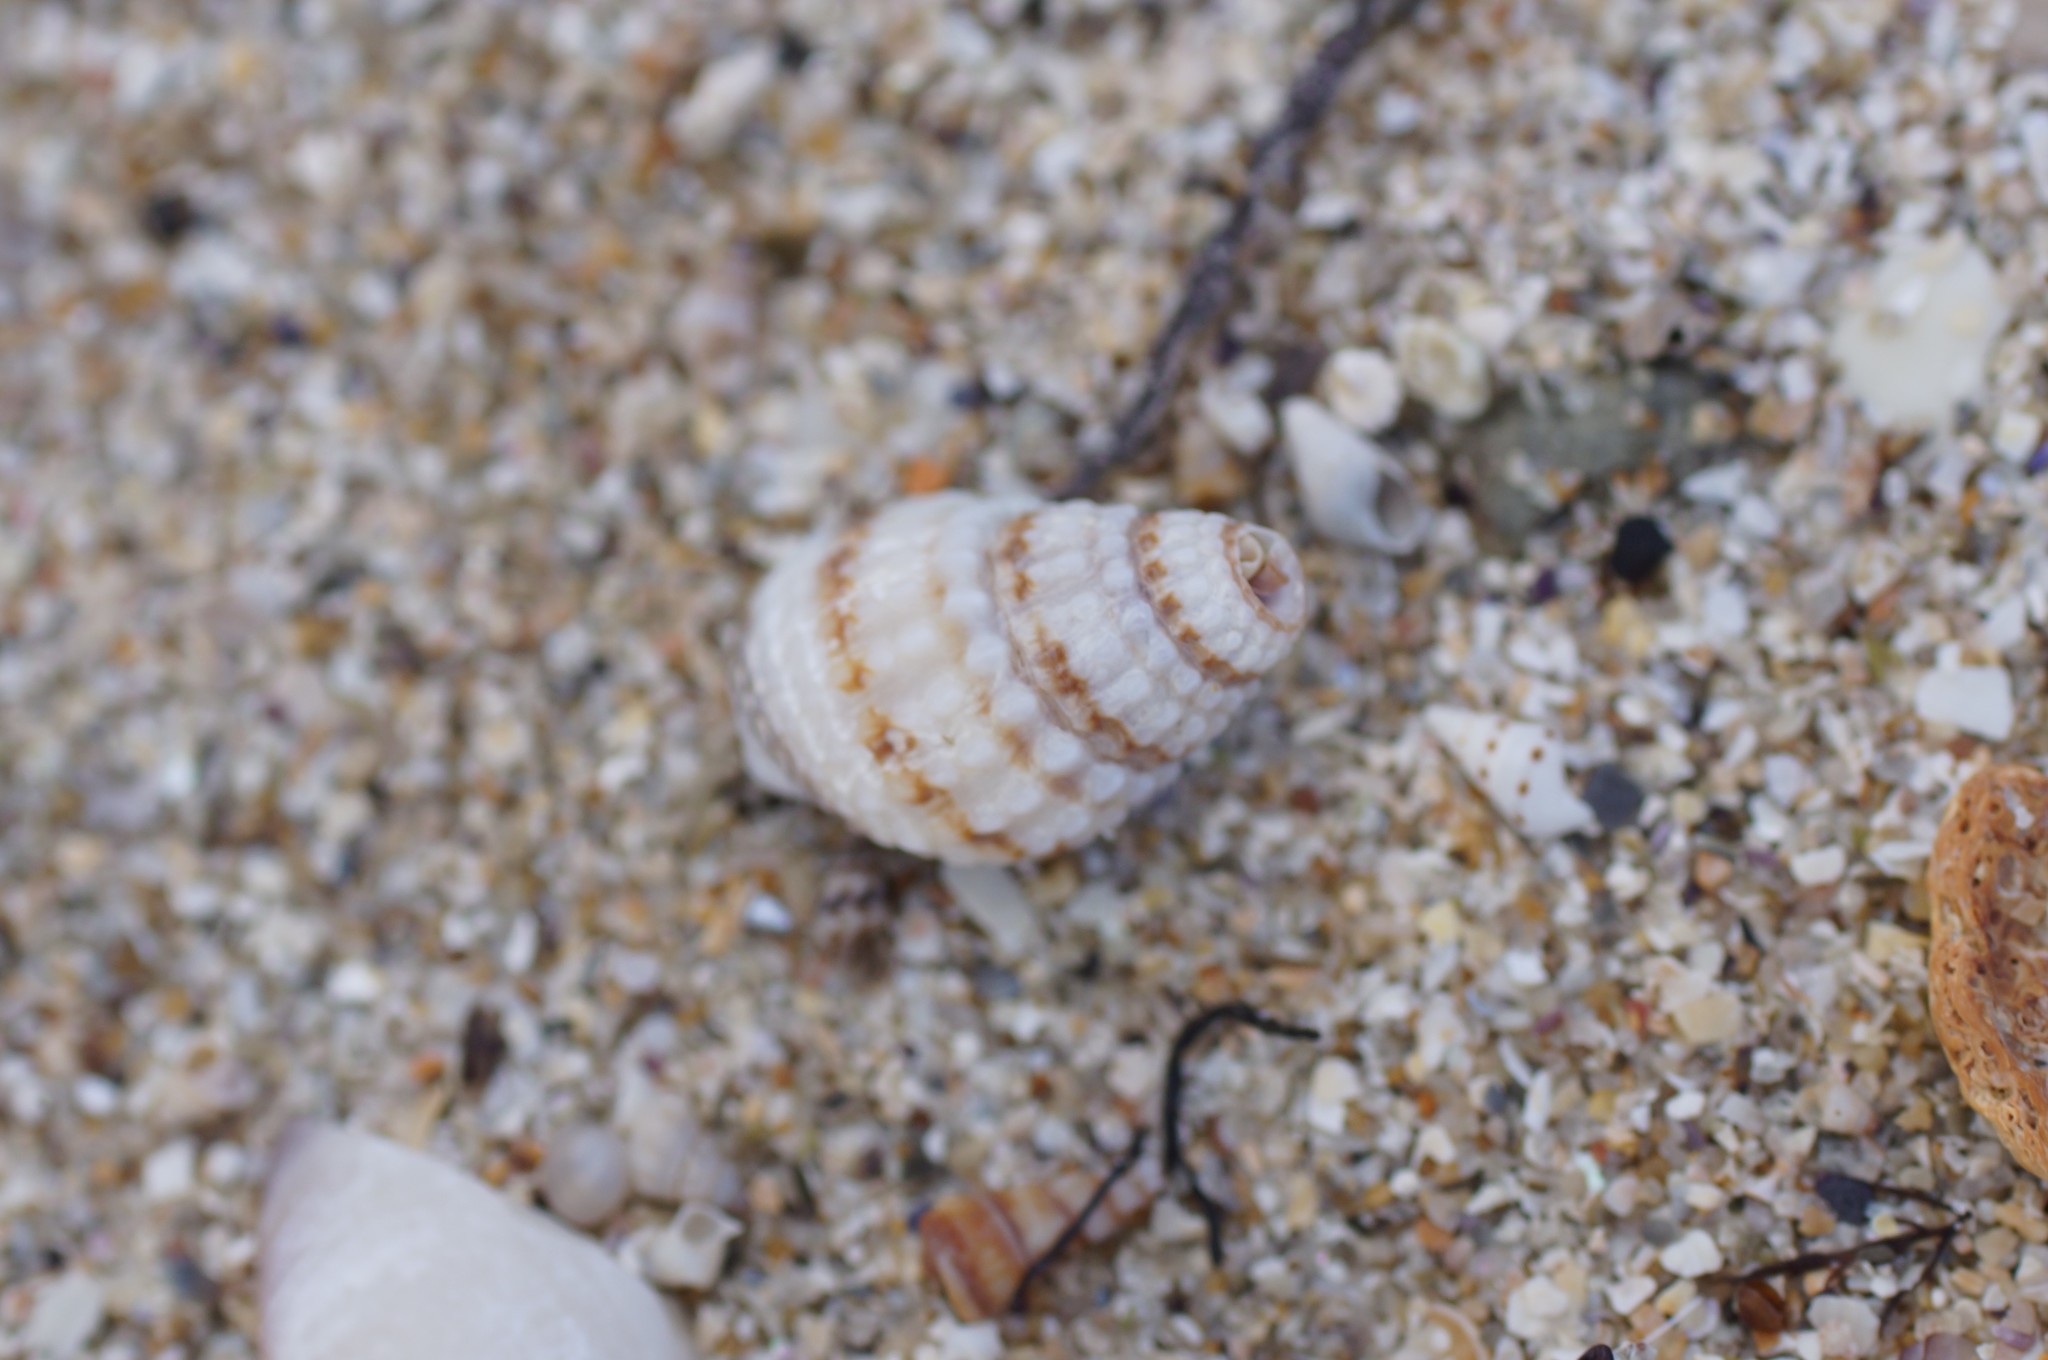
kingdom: Animalia
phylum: Mollusca
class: Gastropoda
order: Neogastropoda
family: Nassariidae
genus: Nassarius
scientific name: Nassarius pyrrhus
